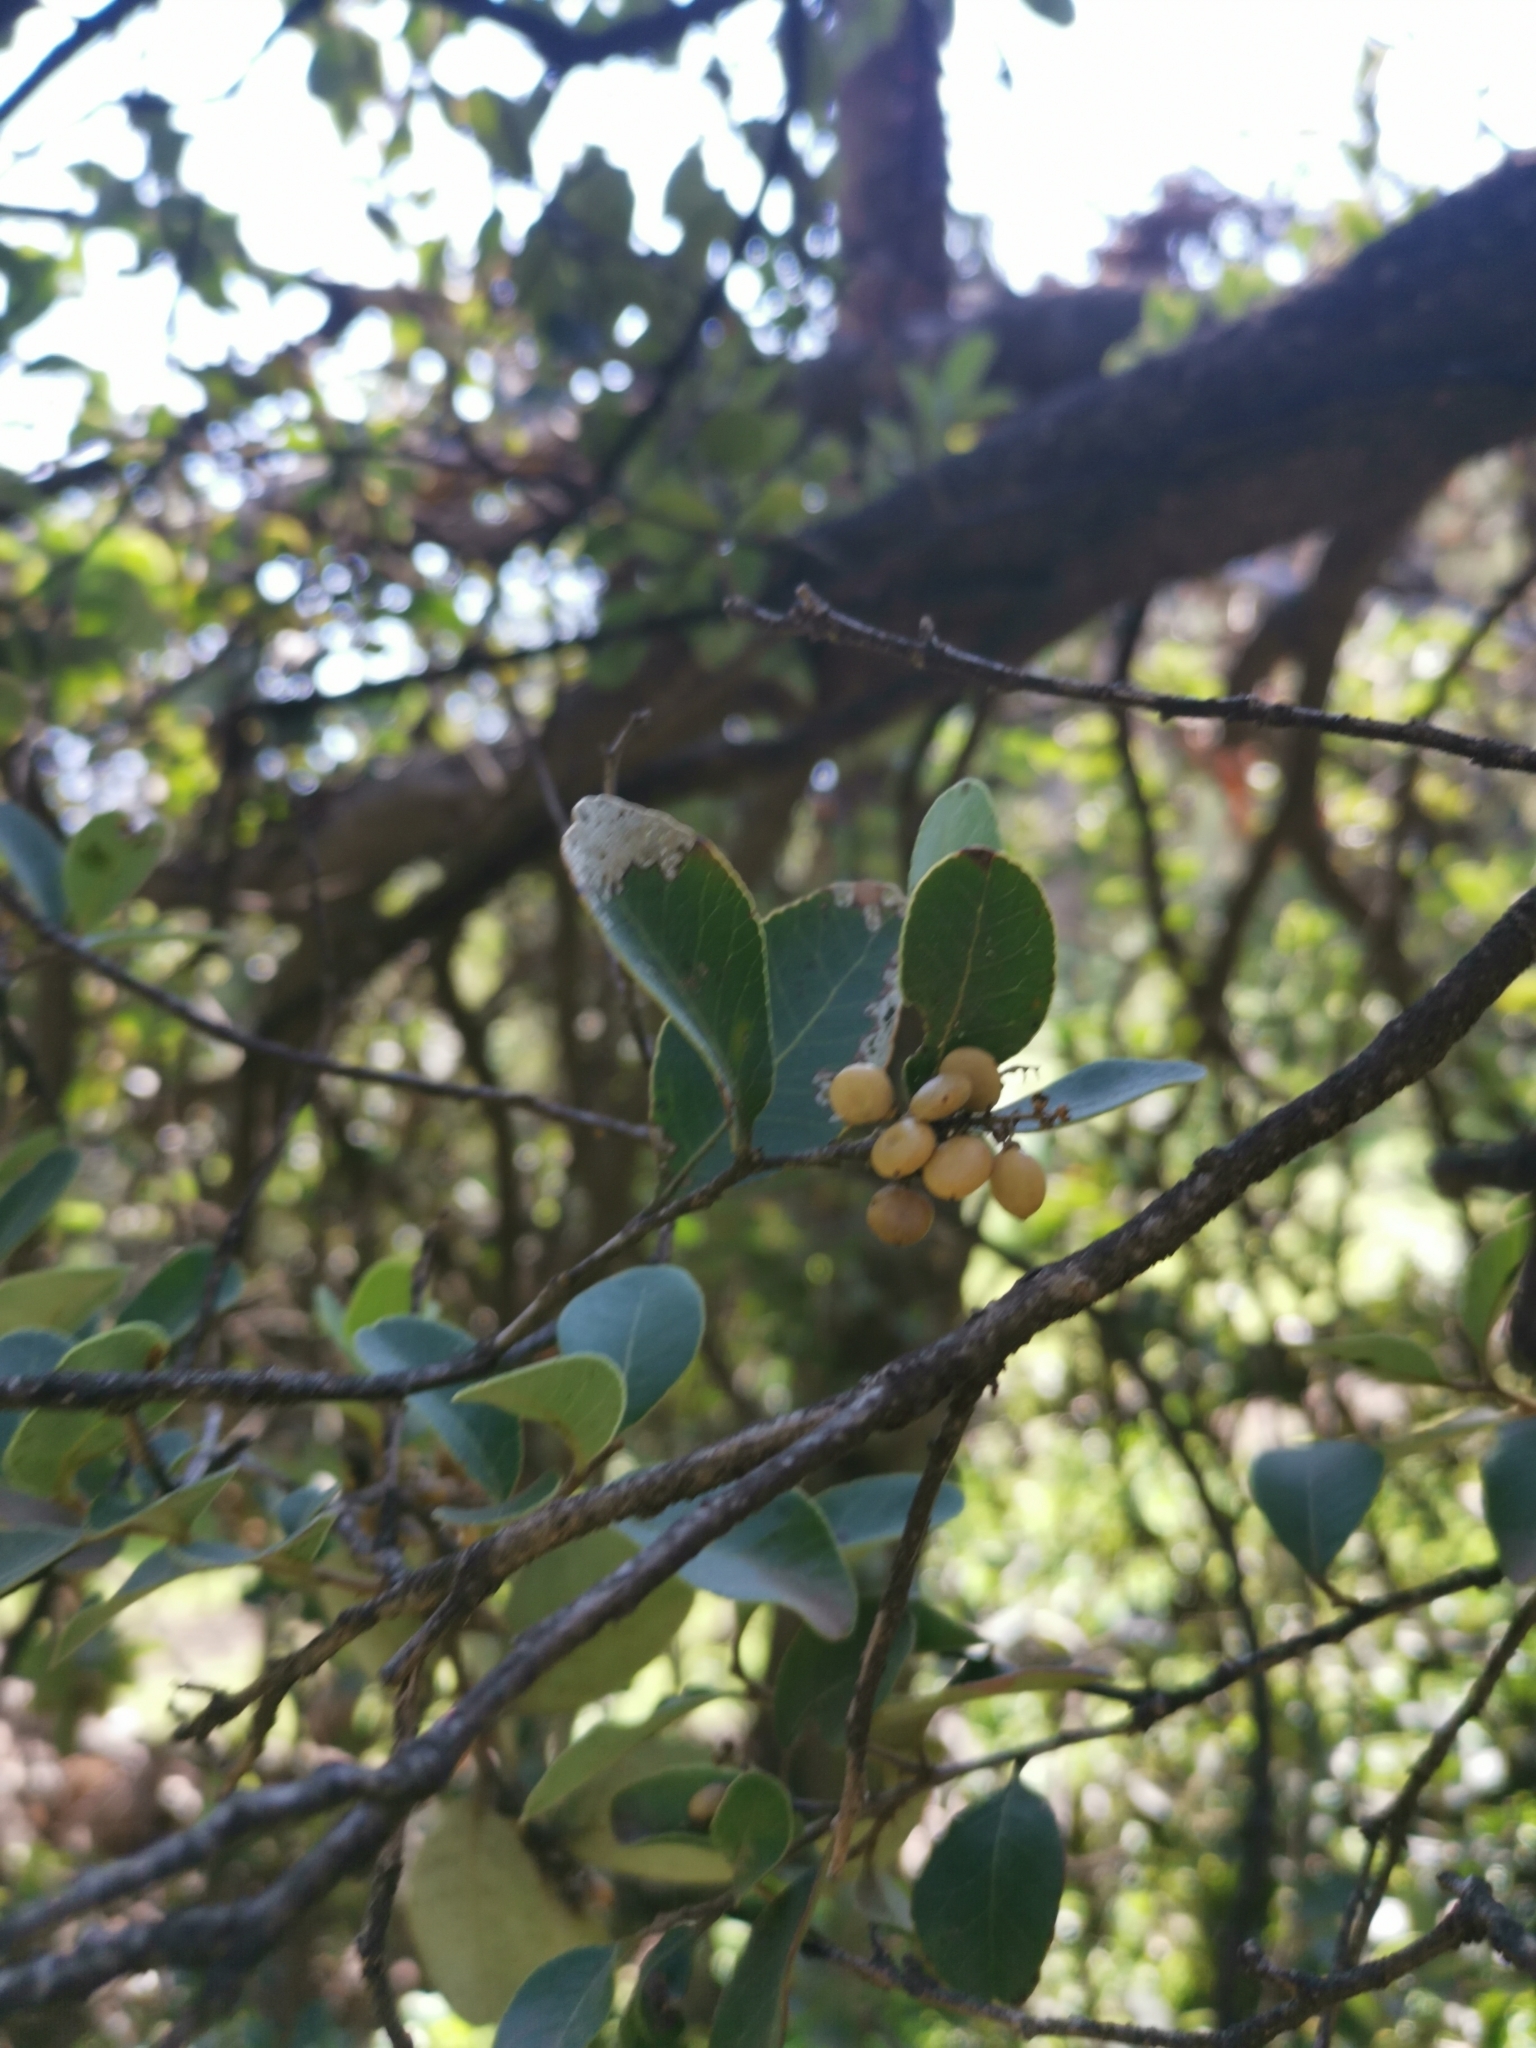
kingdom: Plantae
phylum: Tracheophyta
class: Magnoliopsida
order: Sapindales
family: Anacardiaceae
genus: Lithraea
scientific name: Lithraea caustica
